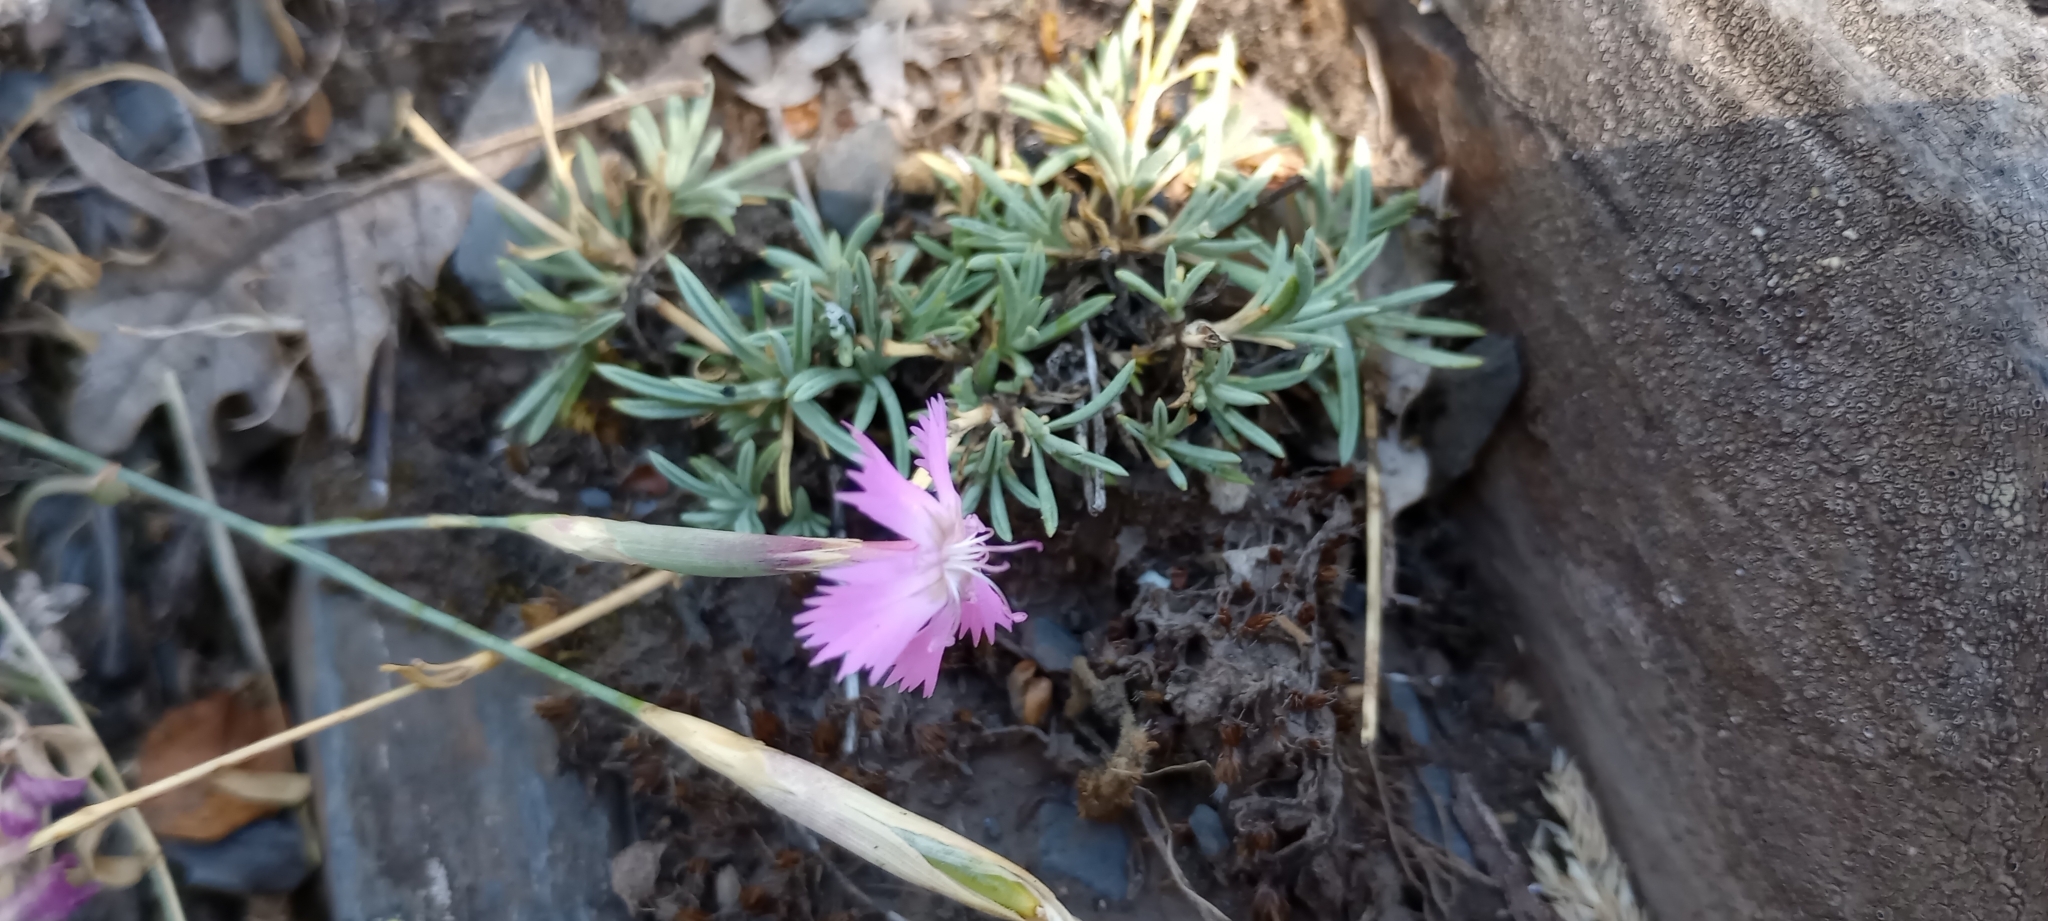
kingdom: Plantae
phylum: Tracheophyta
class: Magnoliopsida
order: Caryophyllales
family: Caryophyllaceae
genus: Dianthus
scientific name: Dianthus lusitanus
